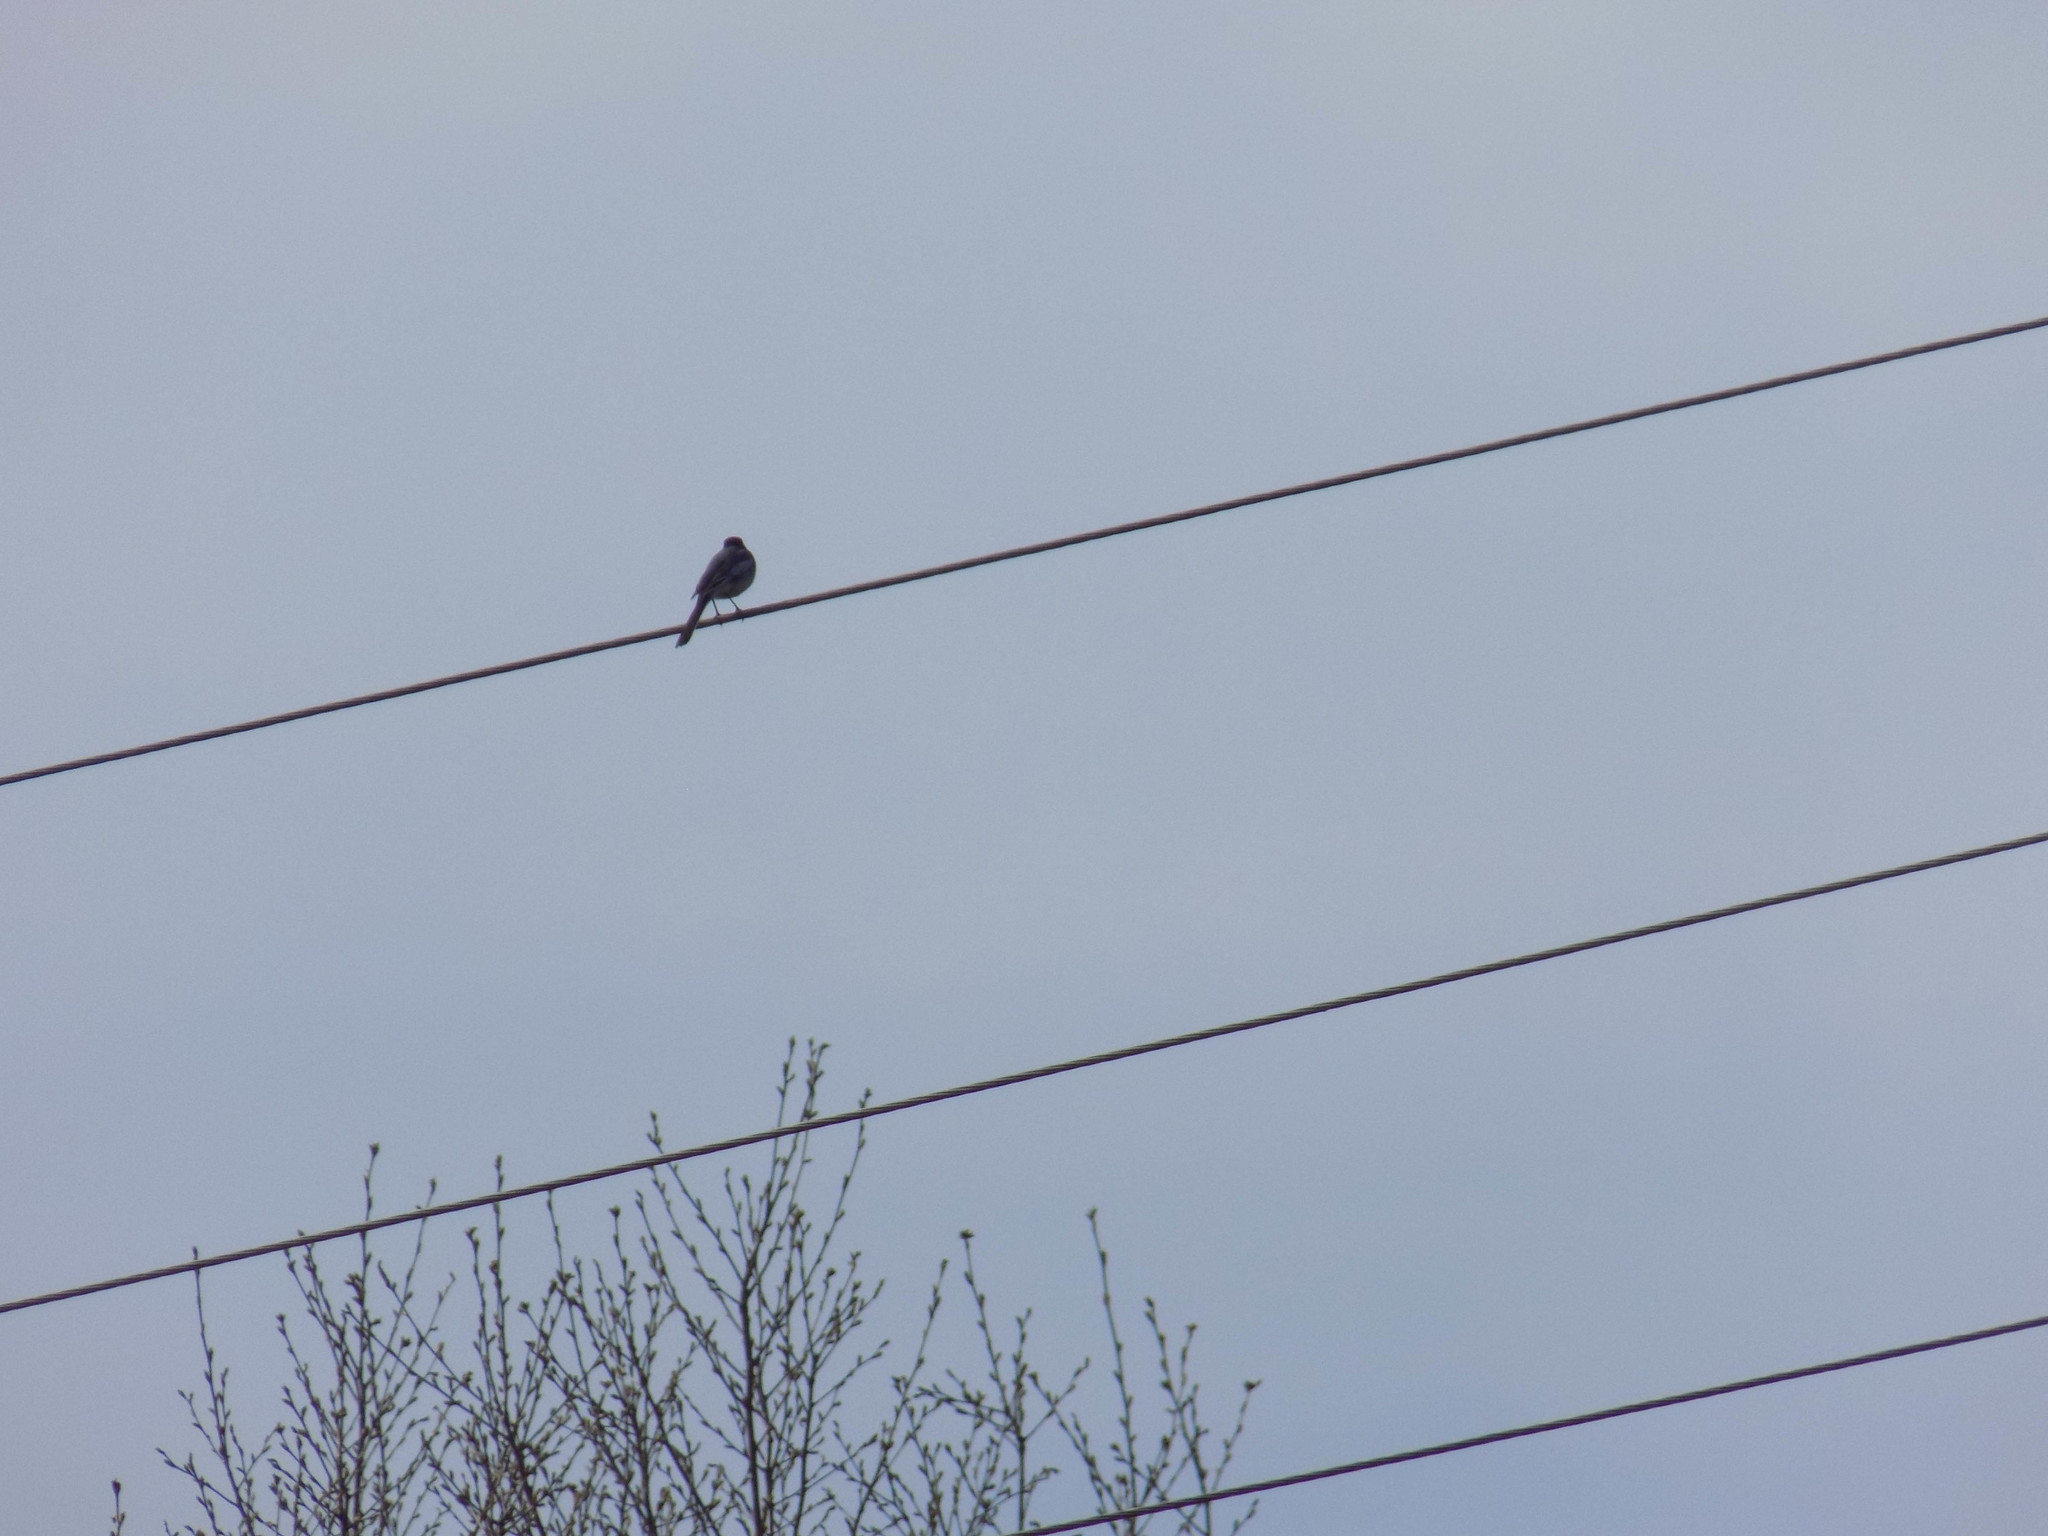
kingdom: Animalia
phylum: Chordata
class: Aves
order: Passeriformes
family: Motacillidae
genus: Motacilla
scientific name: Motacilla alba
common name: White wagtail
